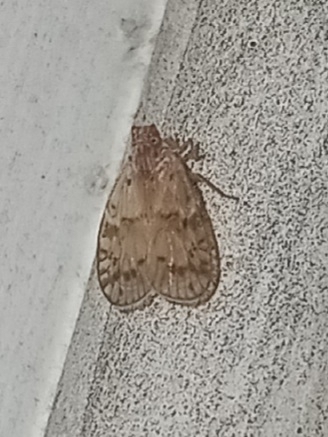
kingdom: Animalia
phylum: Arthropoda
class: Insecta
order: Hemiptera
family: Cixiidae
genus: Bothriocera
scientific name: Bothriocera drakei
